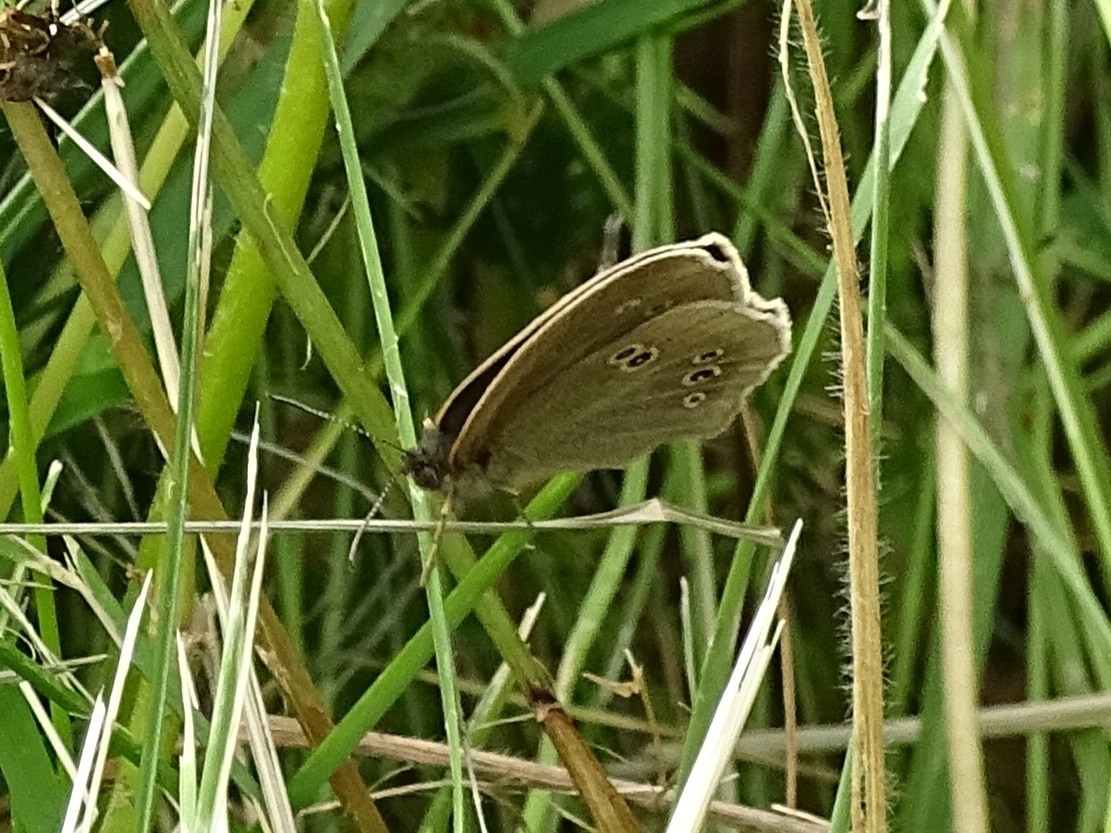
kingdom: Animalia
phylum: Arthropoda
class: Insecta
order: Lepidoptera
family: Nymphalidae
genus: Aphantopus
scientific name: Aphantopus hyperantus
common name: Ringlet
